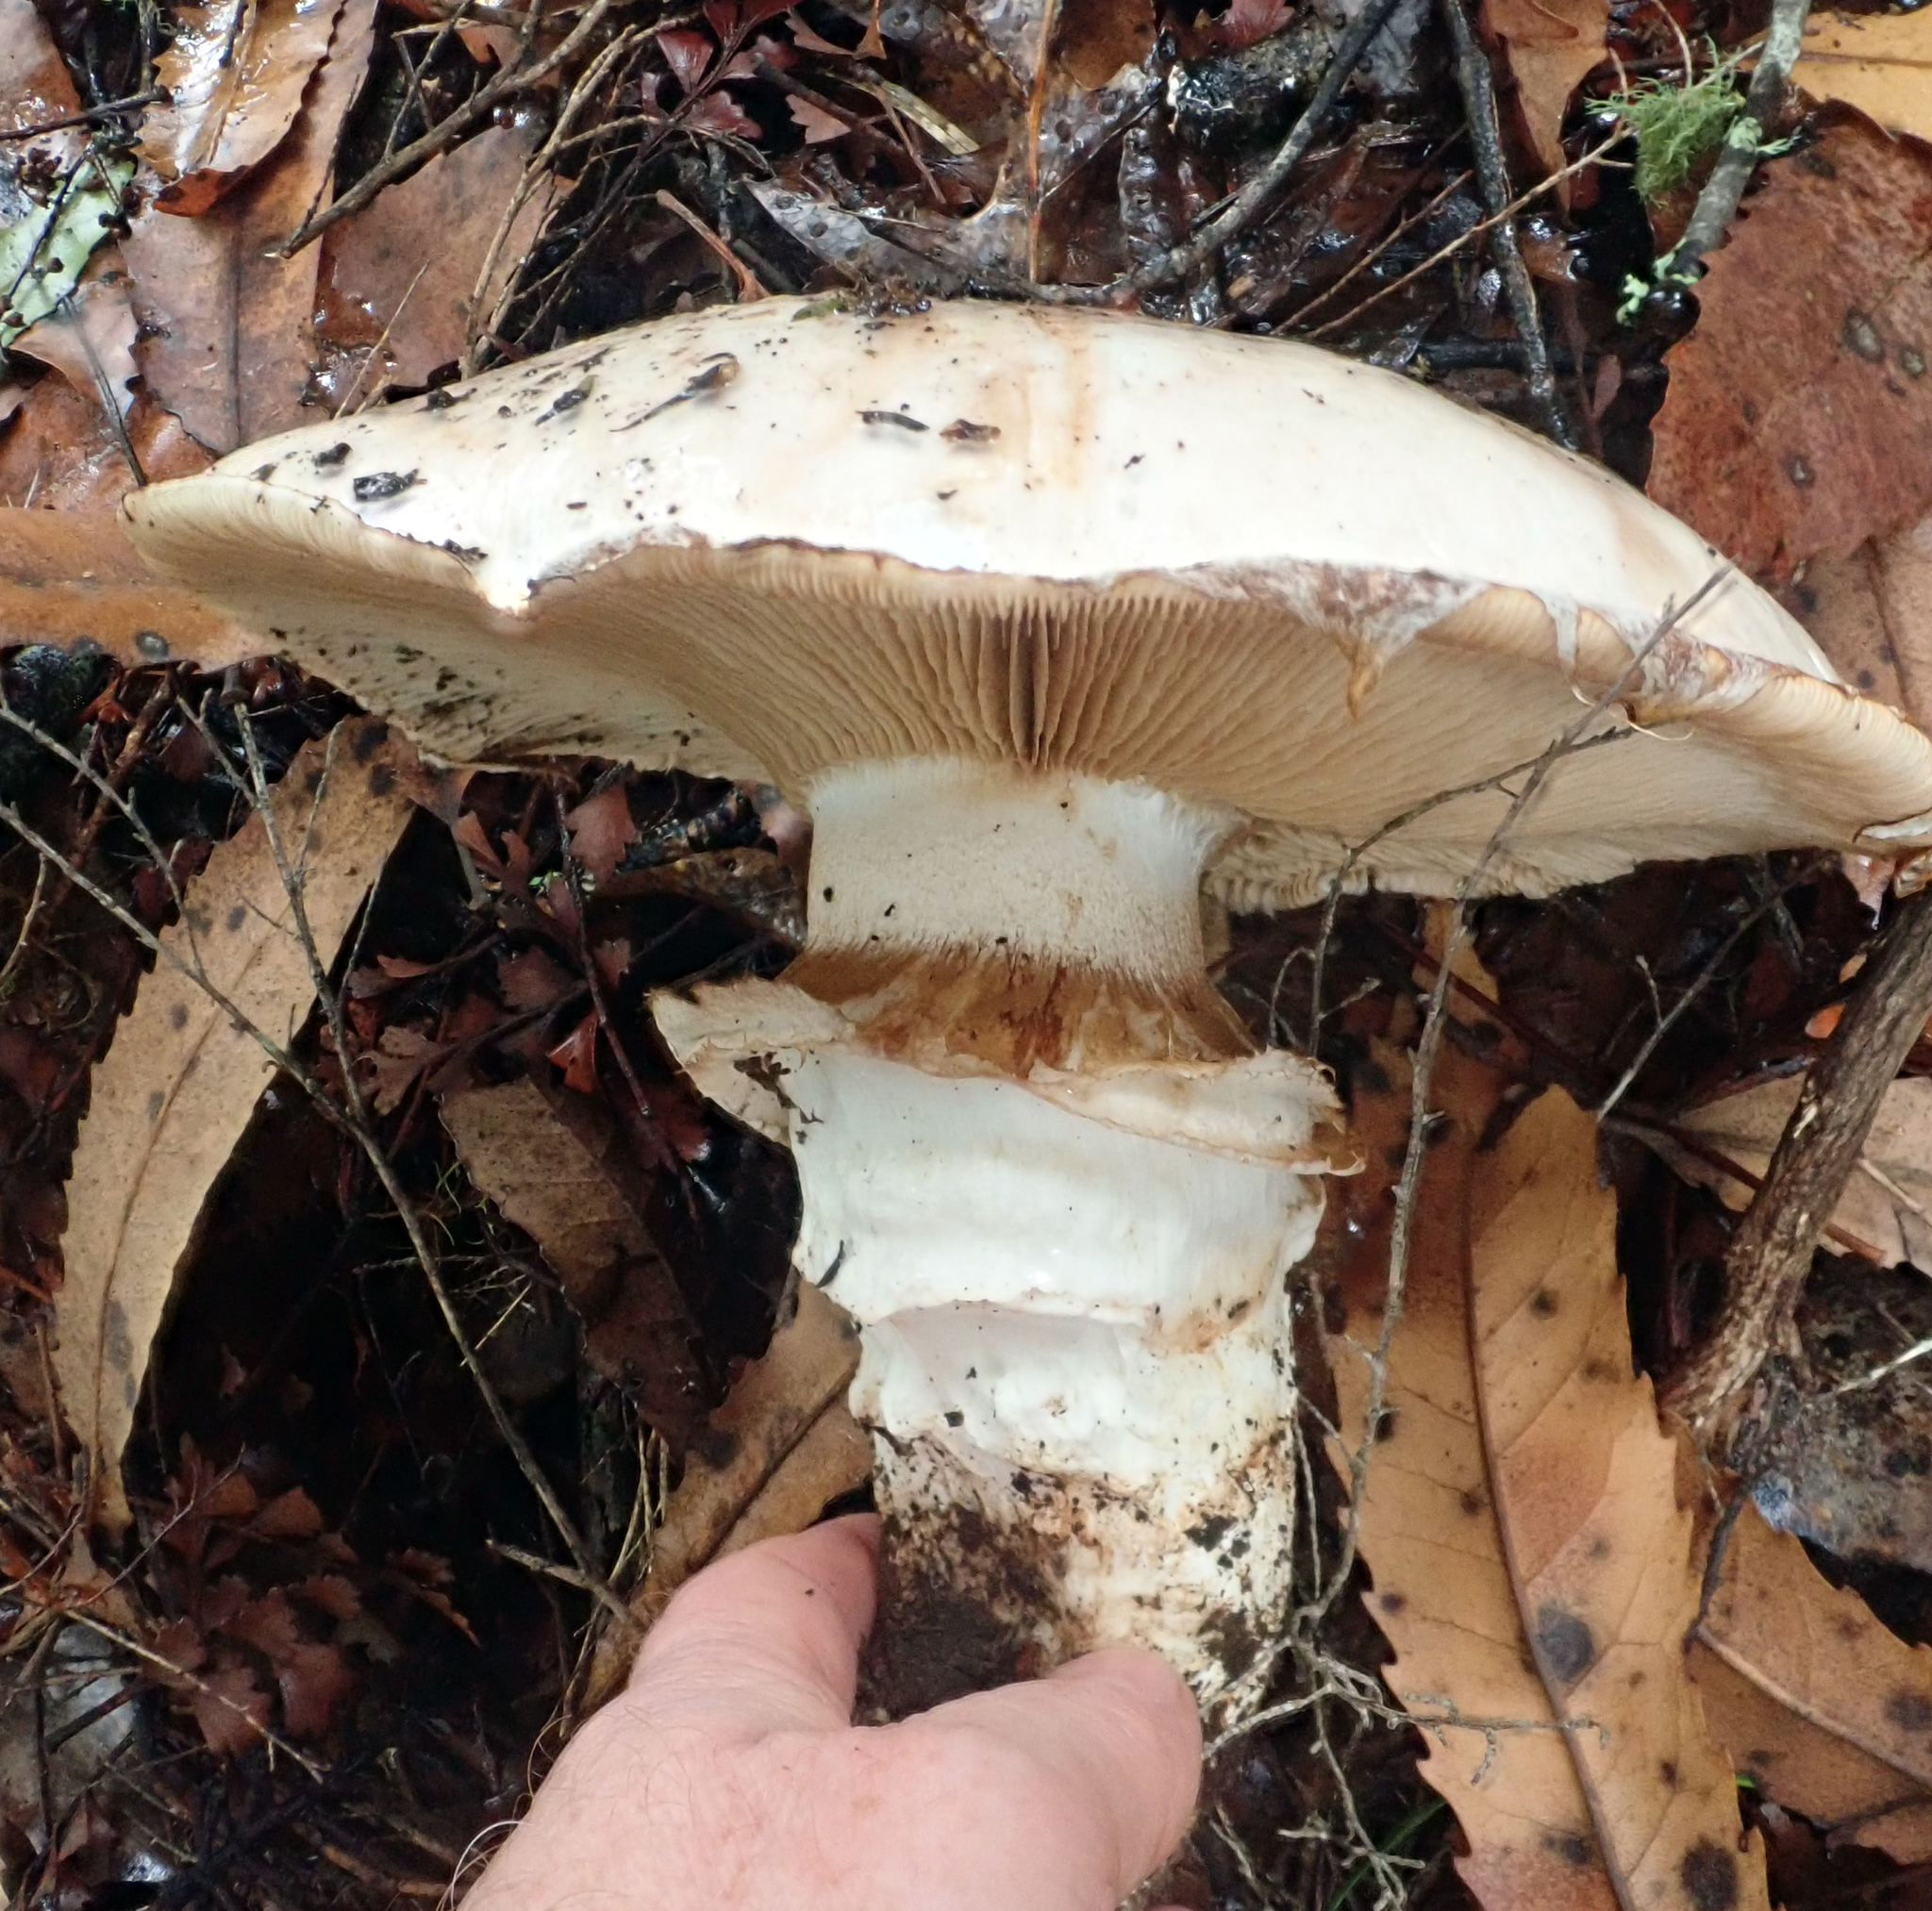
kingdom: Fungi
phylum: Basidiomycota
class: Agaricomycetes
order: Agaricales
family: Hymenogastraceae
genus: Hebeloma
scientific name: Hebeloma victoriense
